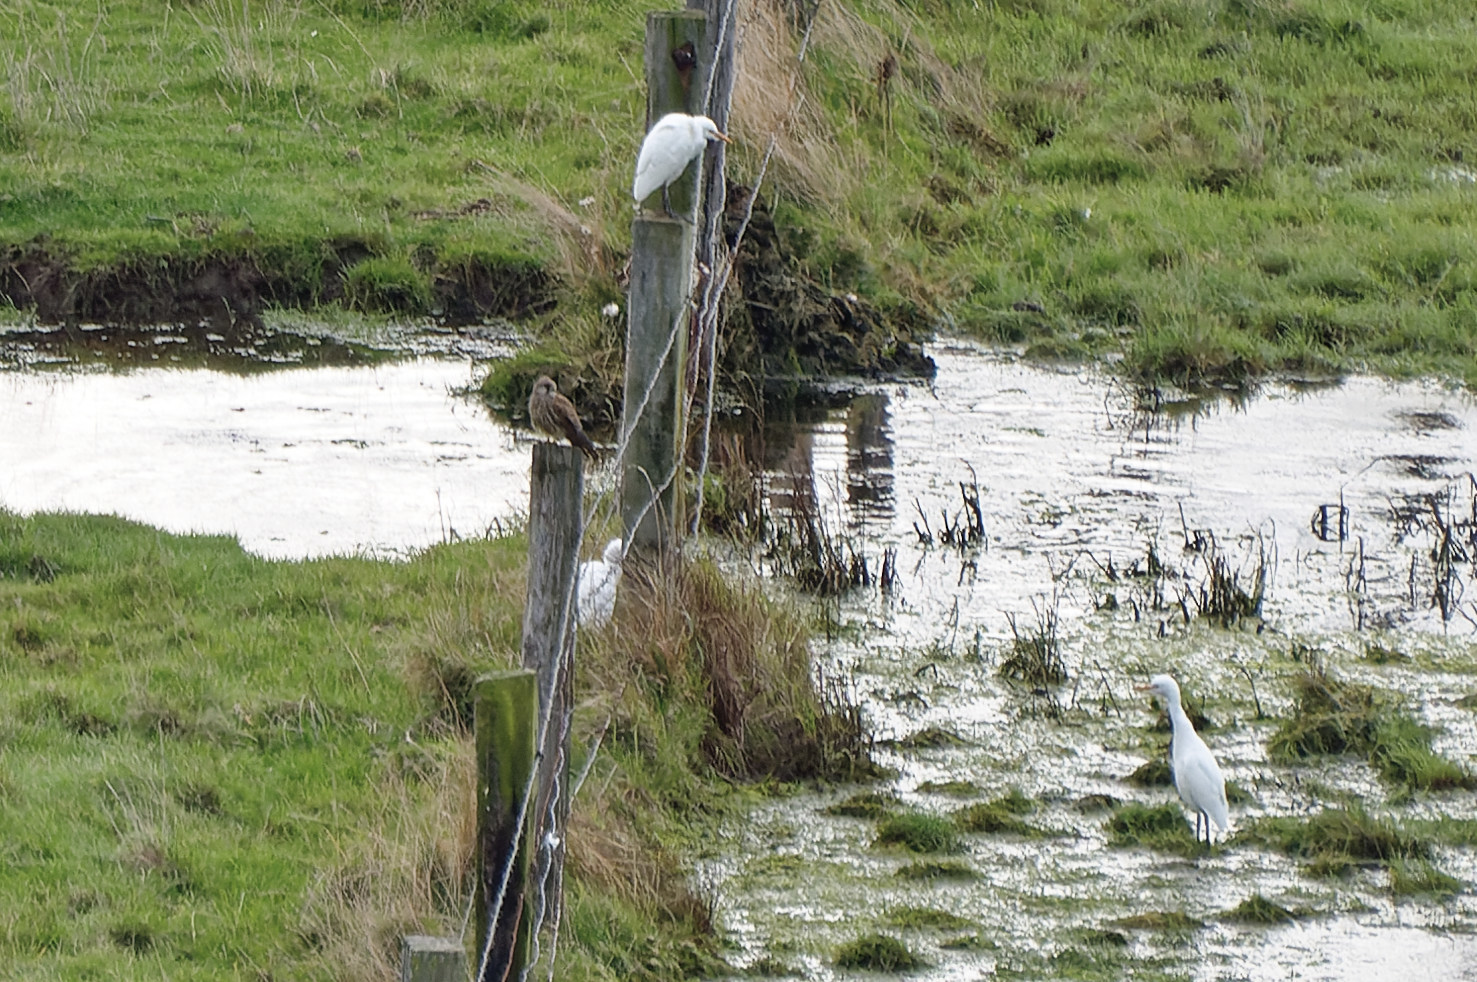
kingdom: Animalia
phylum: Chordata
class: Aves
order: Pelecaniformes
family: Ardeidae
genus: Bubulcus
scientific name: Bubulcus ibis
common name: Cattle egret
